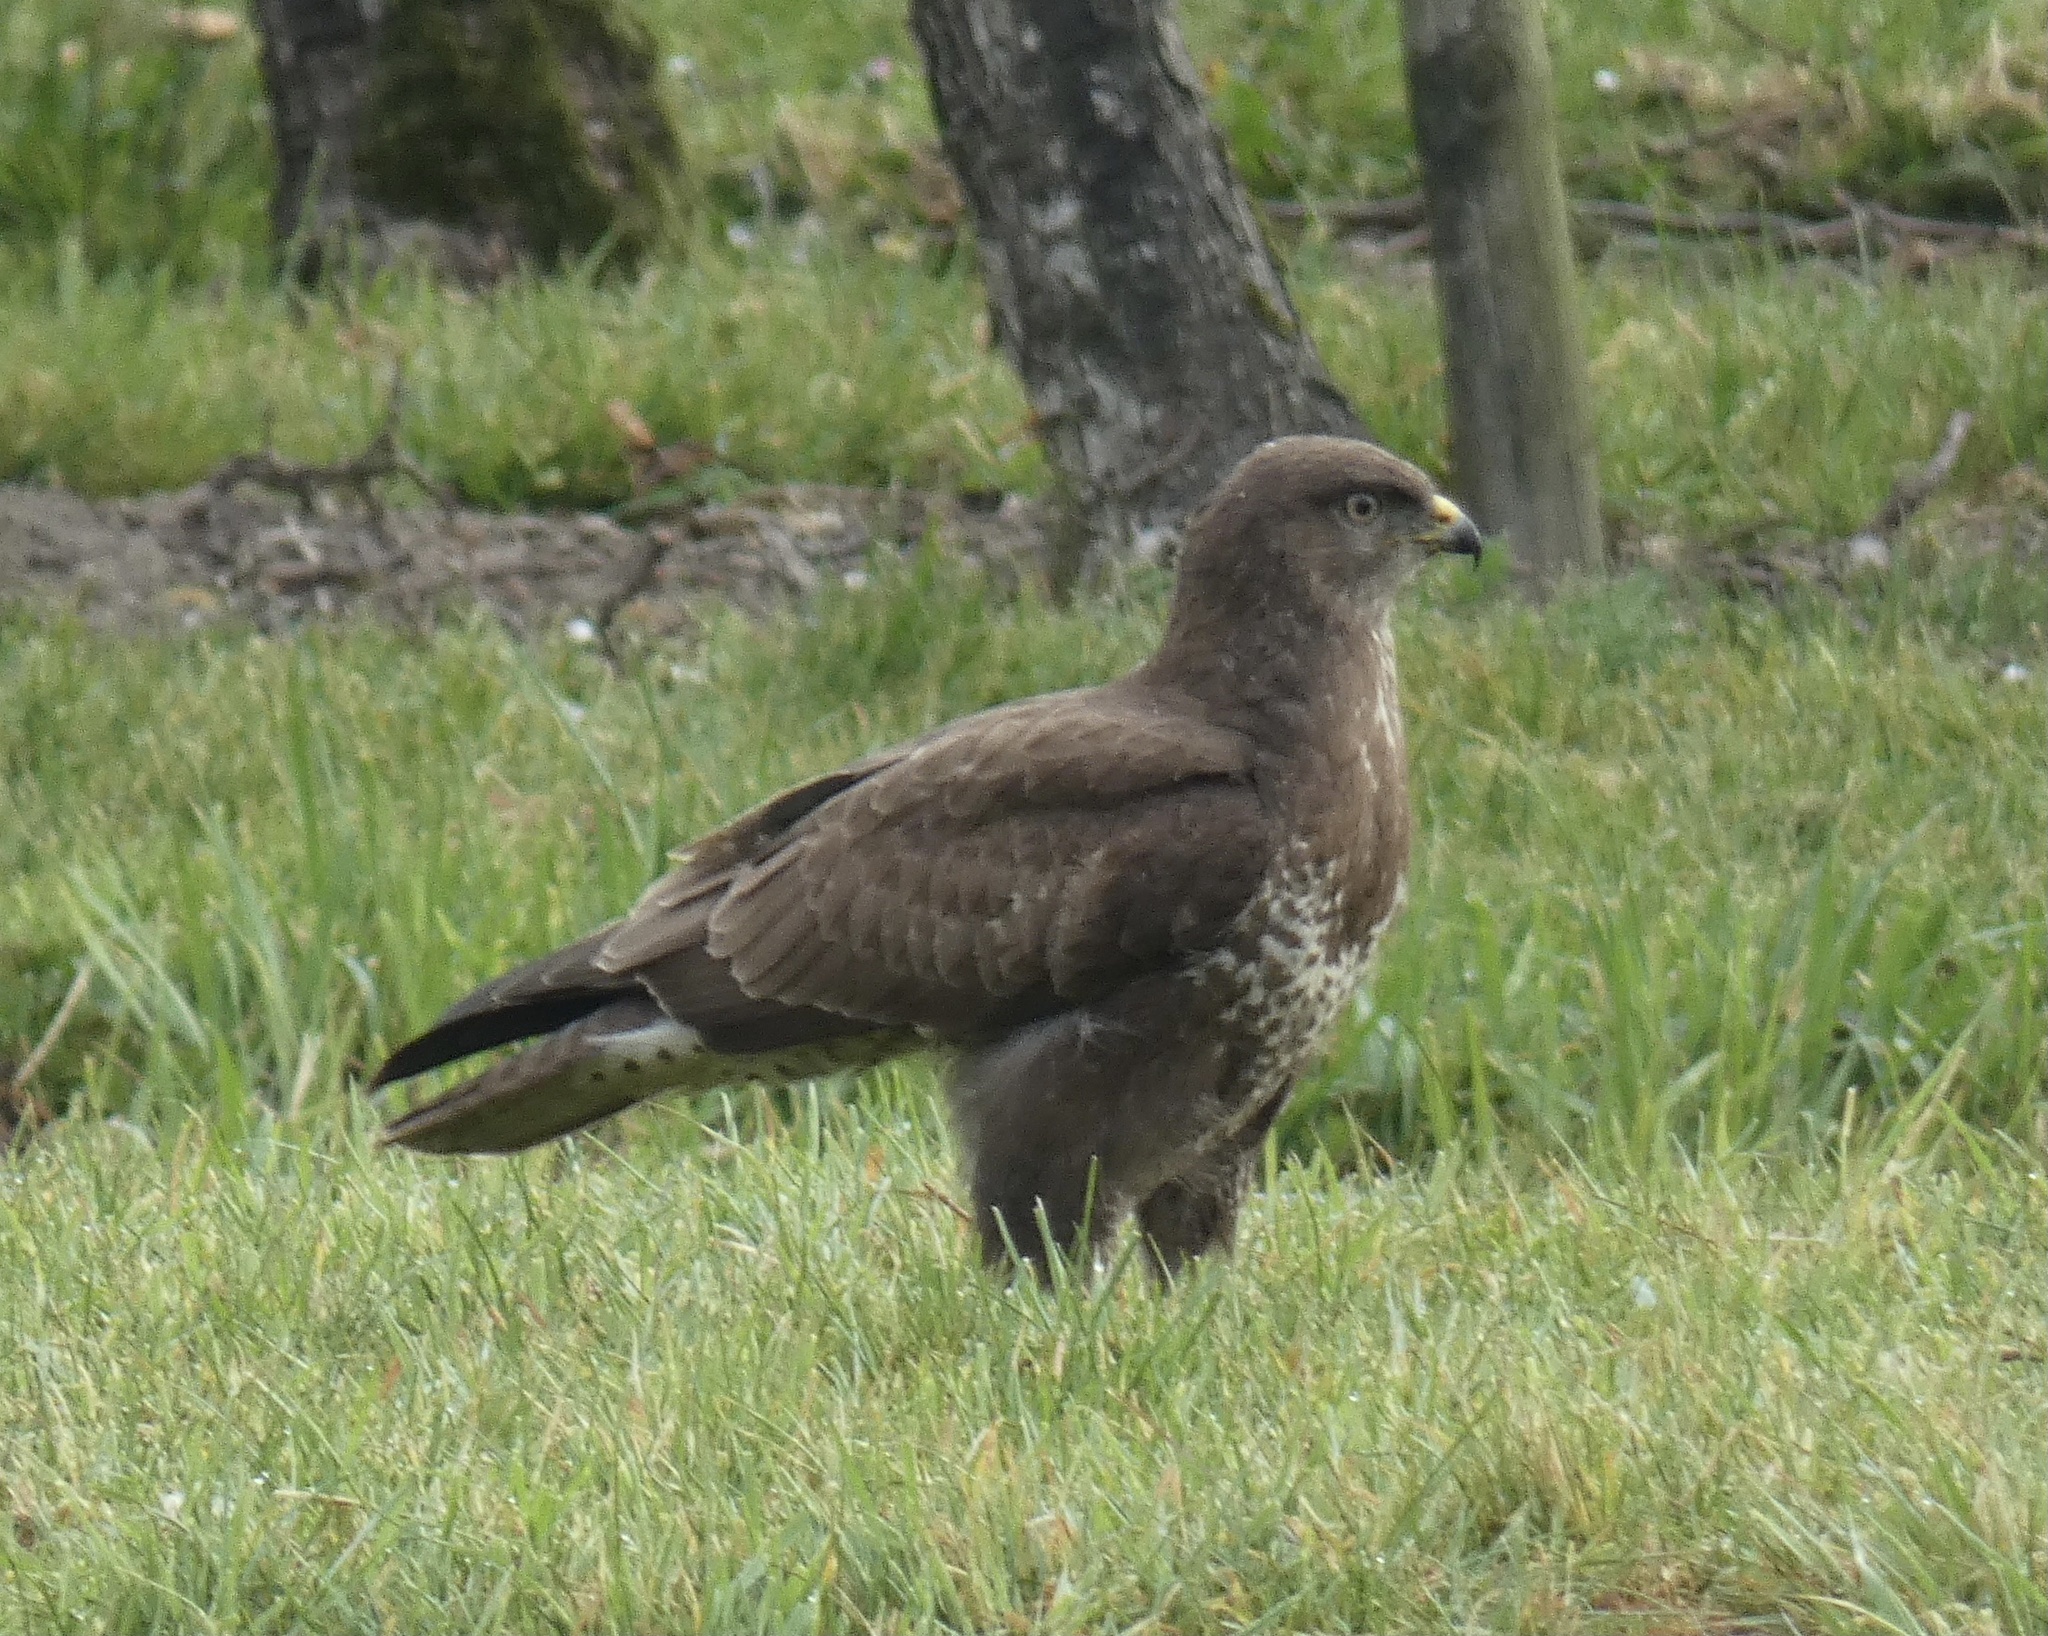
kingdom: Animalia
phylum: Chordata
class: Aves
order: Accipitriformes
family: Accipitridae
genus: Buteo
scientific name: Buteo buteo
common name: Common buzzard
